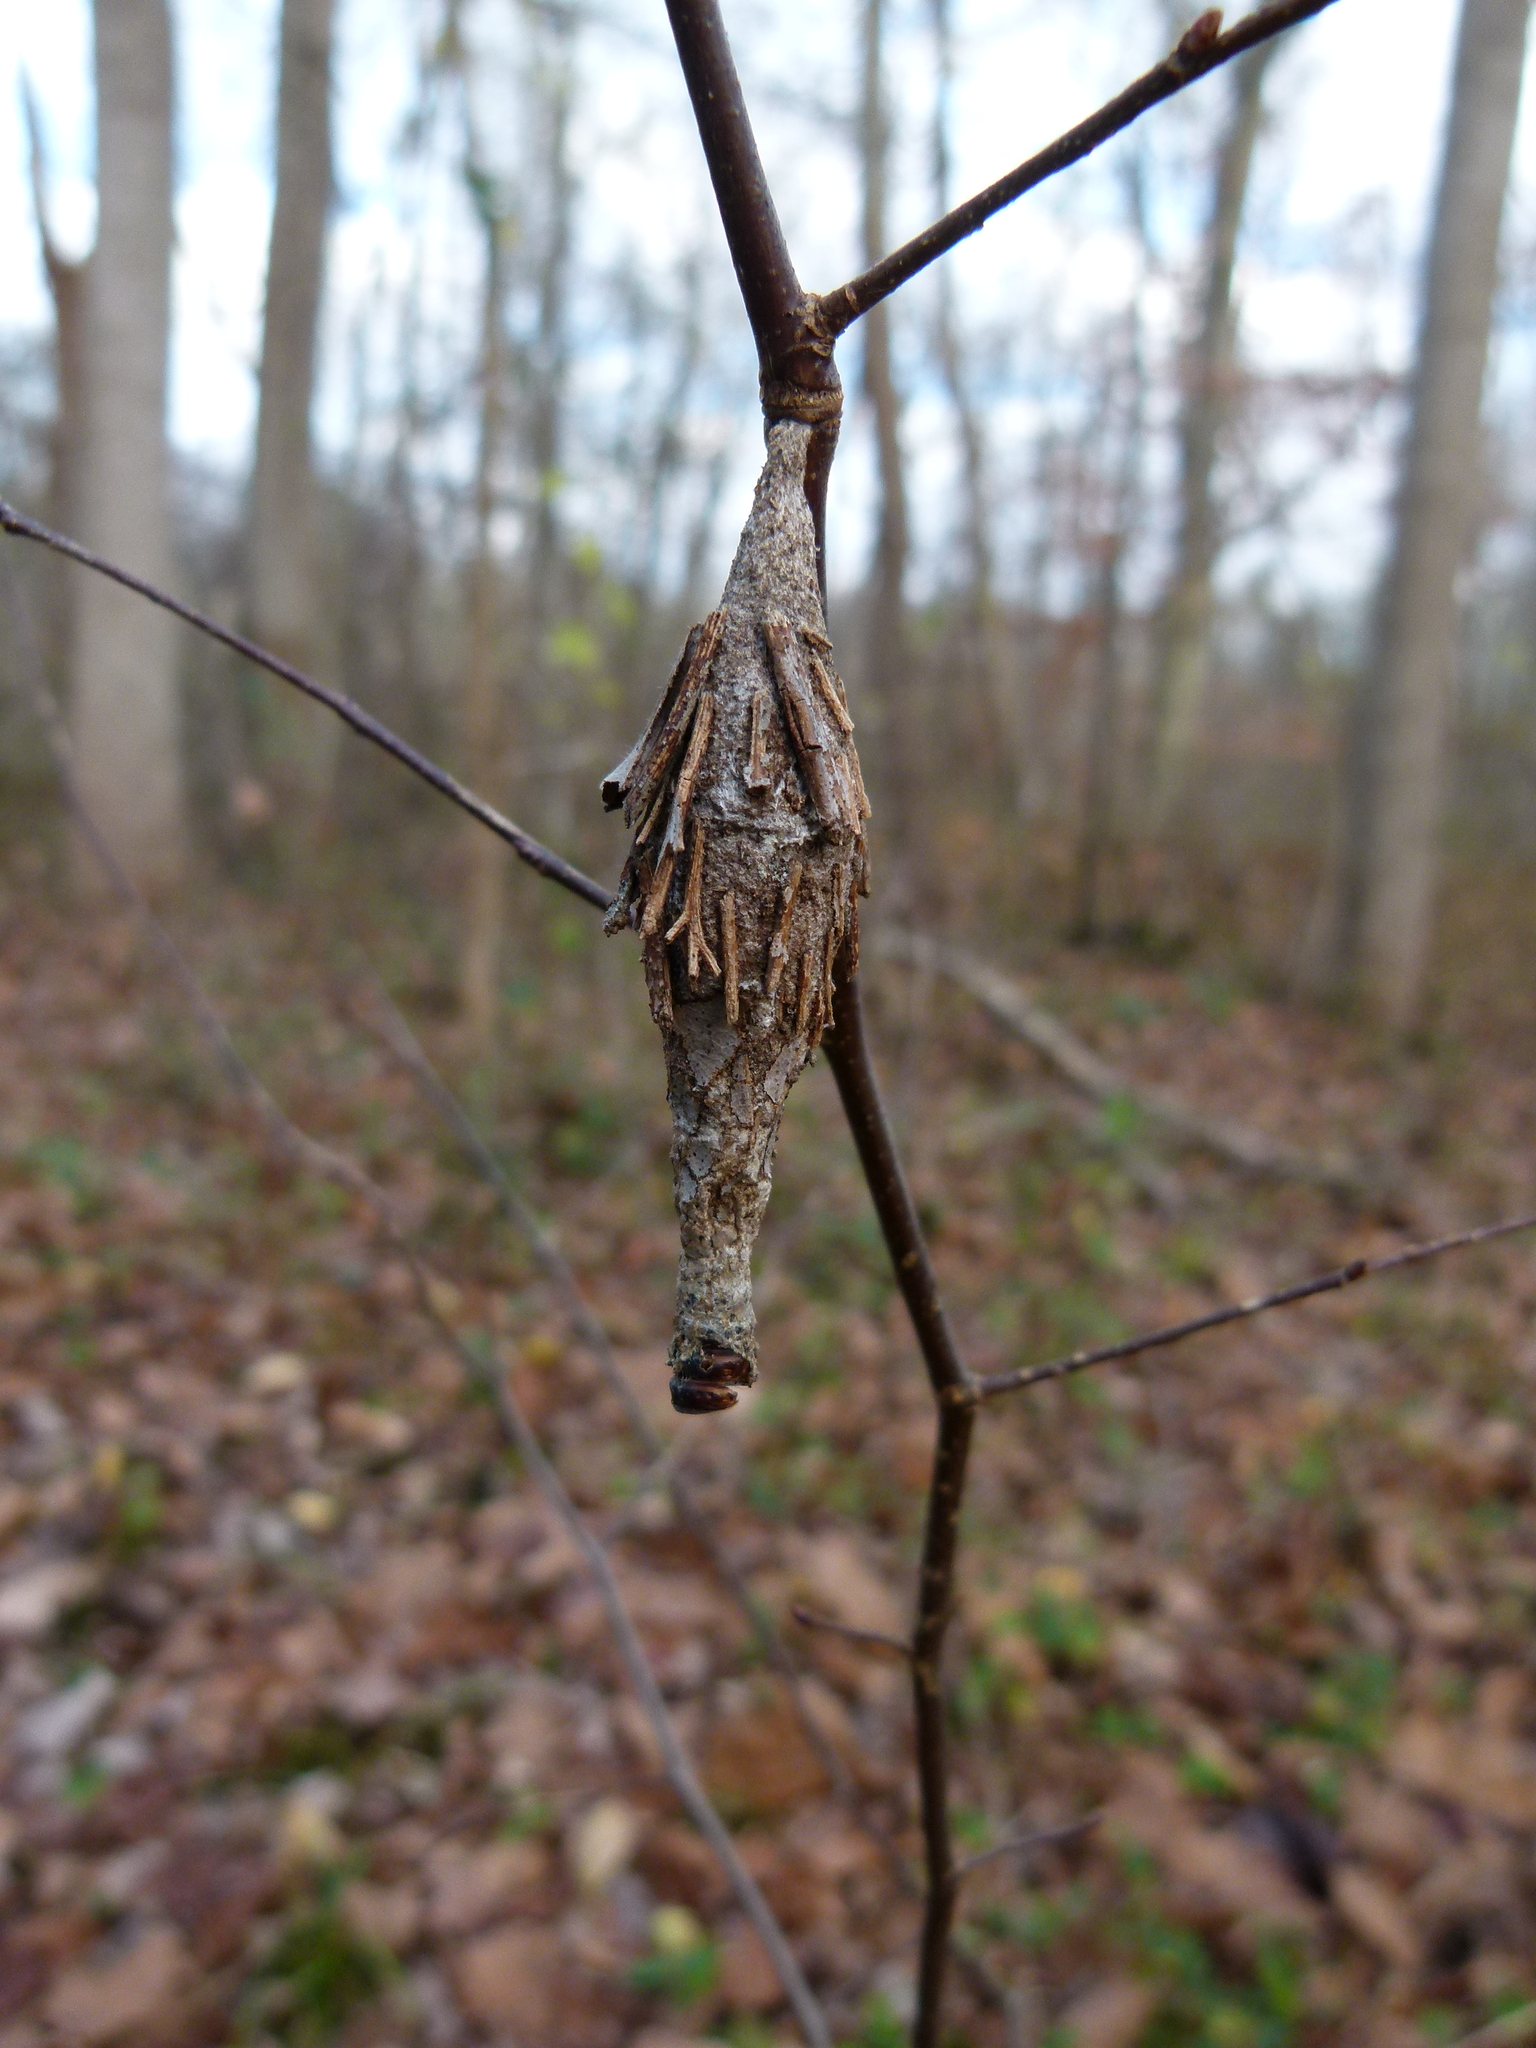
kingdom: Animalia
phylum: Arthropoda
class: Insecta
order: Lepidoptera
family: Psychidae
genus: Thyridopteryx
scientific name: Thyridopteryx ephemeraeformis
